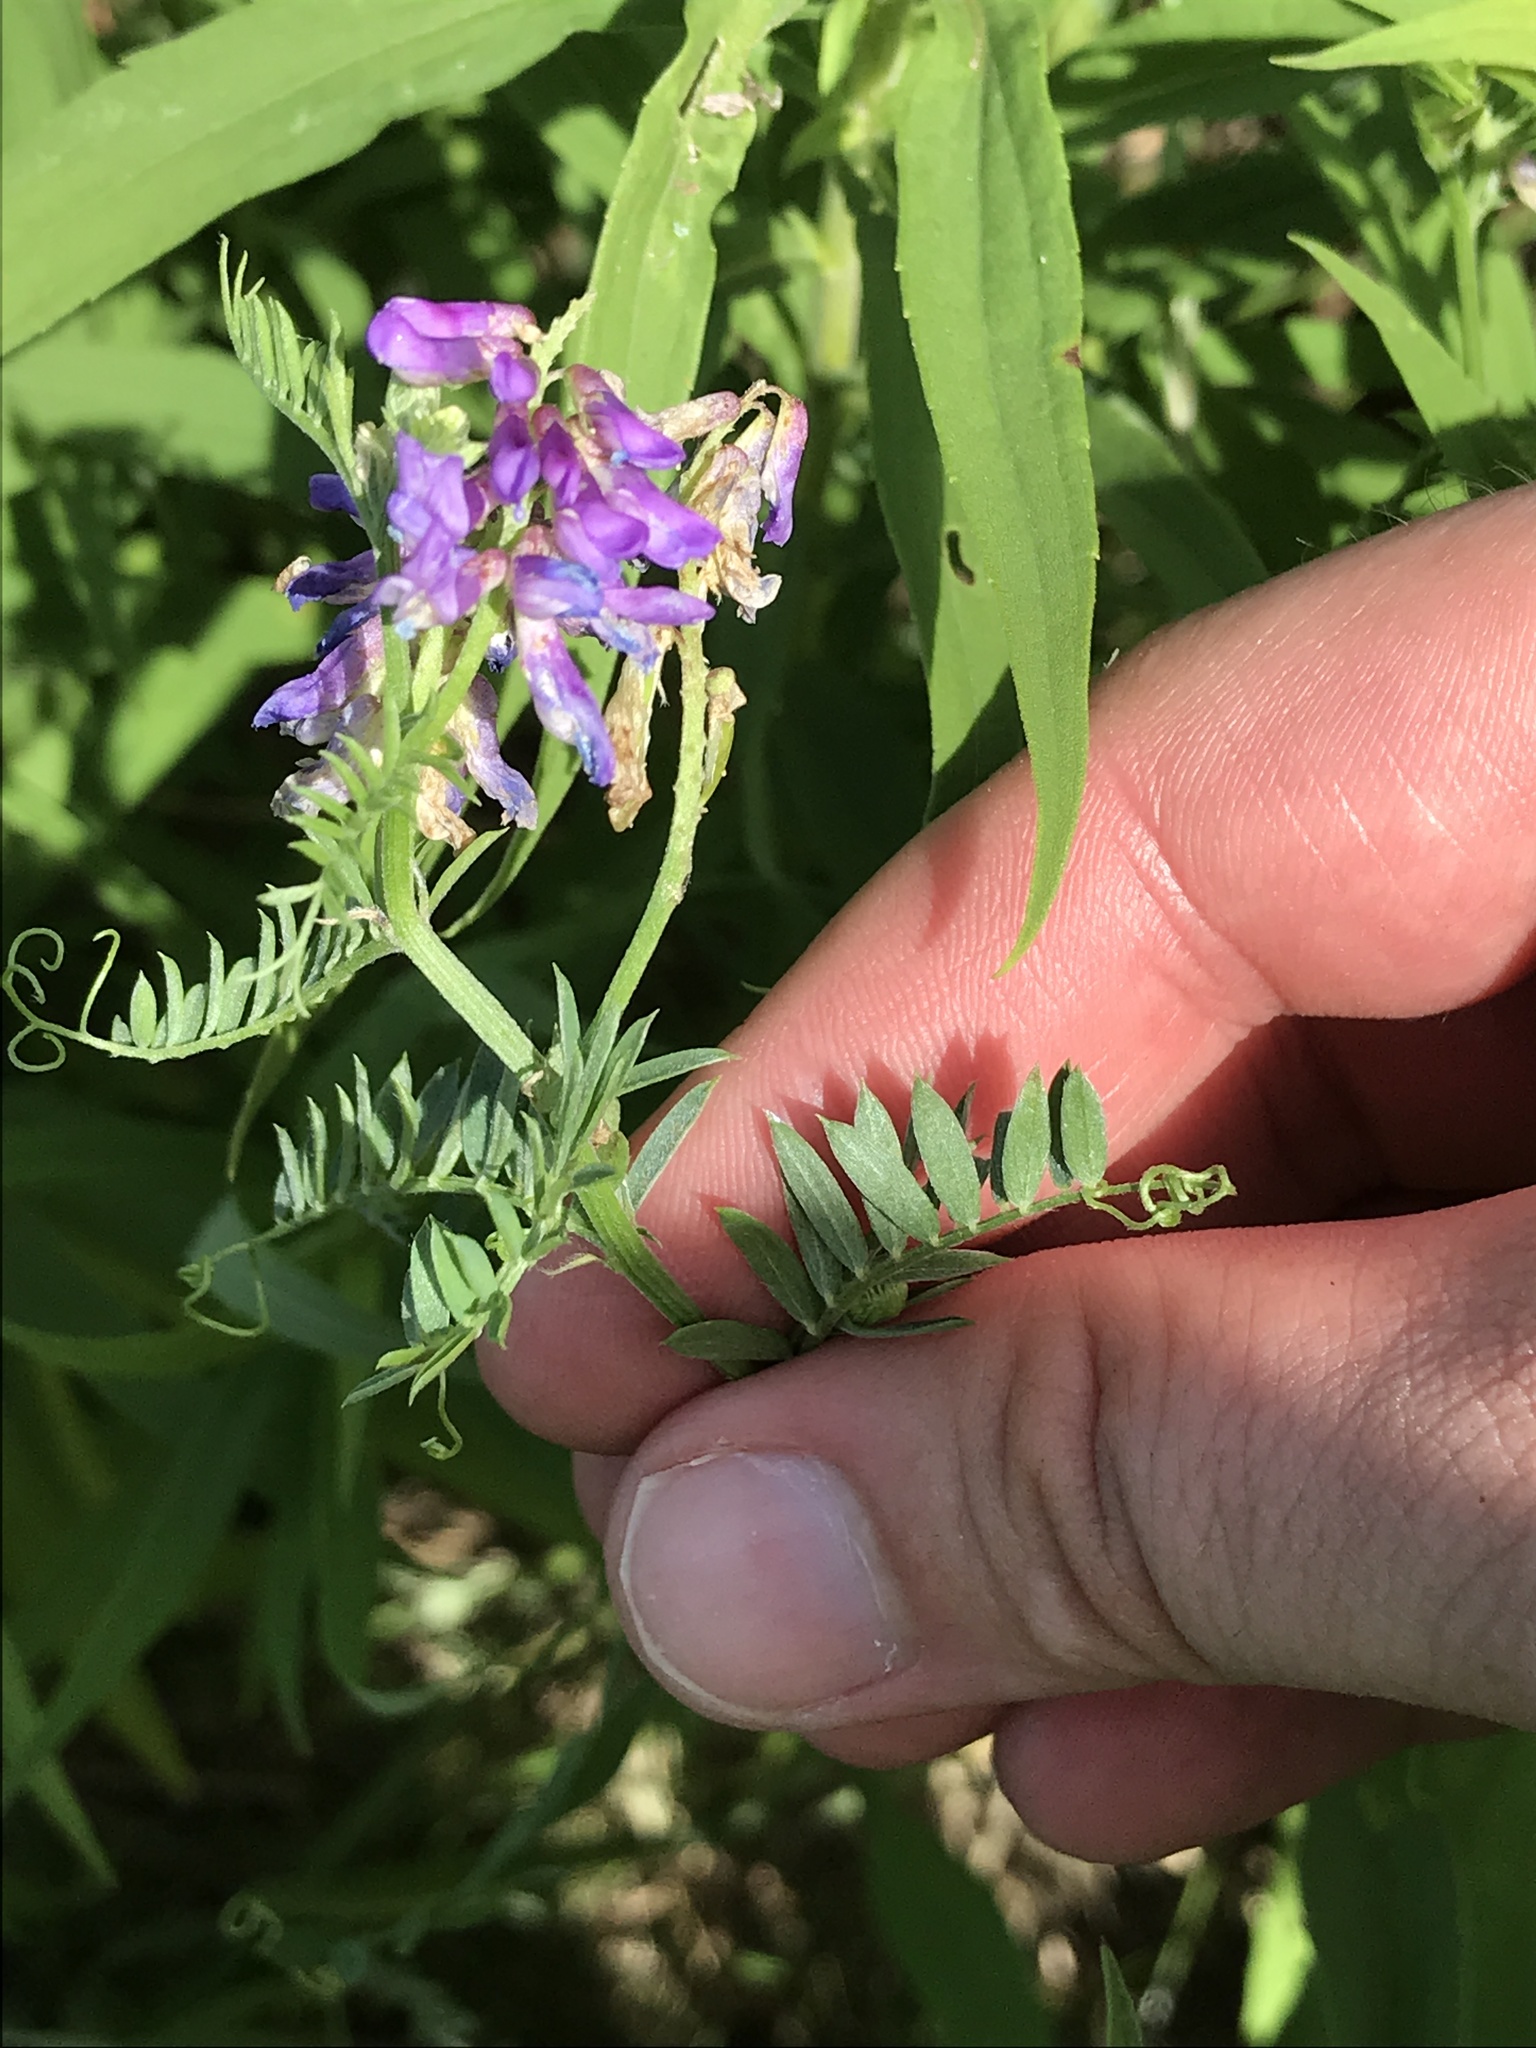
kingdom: Plantae
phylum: Tracheophyta
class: Magnoliopsida
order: Fabales
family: Fabaceae
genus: Vicia
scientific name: Vicia cracca
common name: Bird vetch
